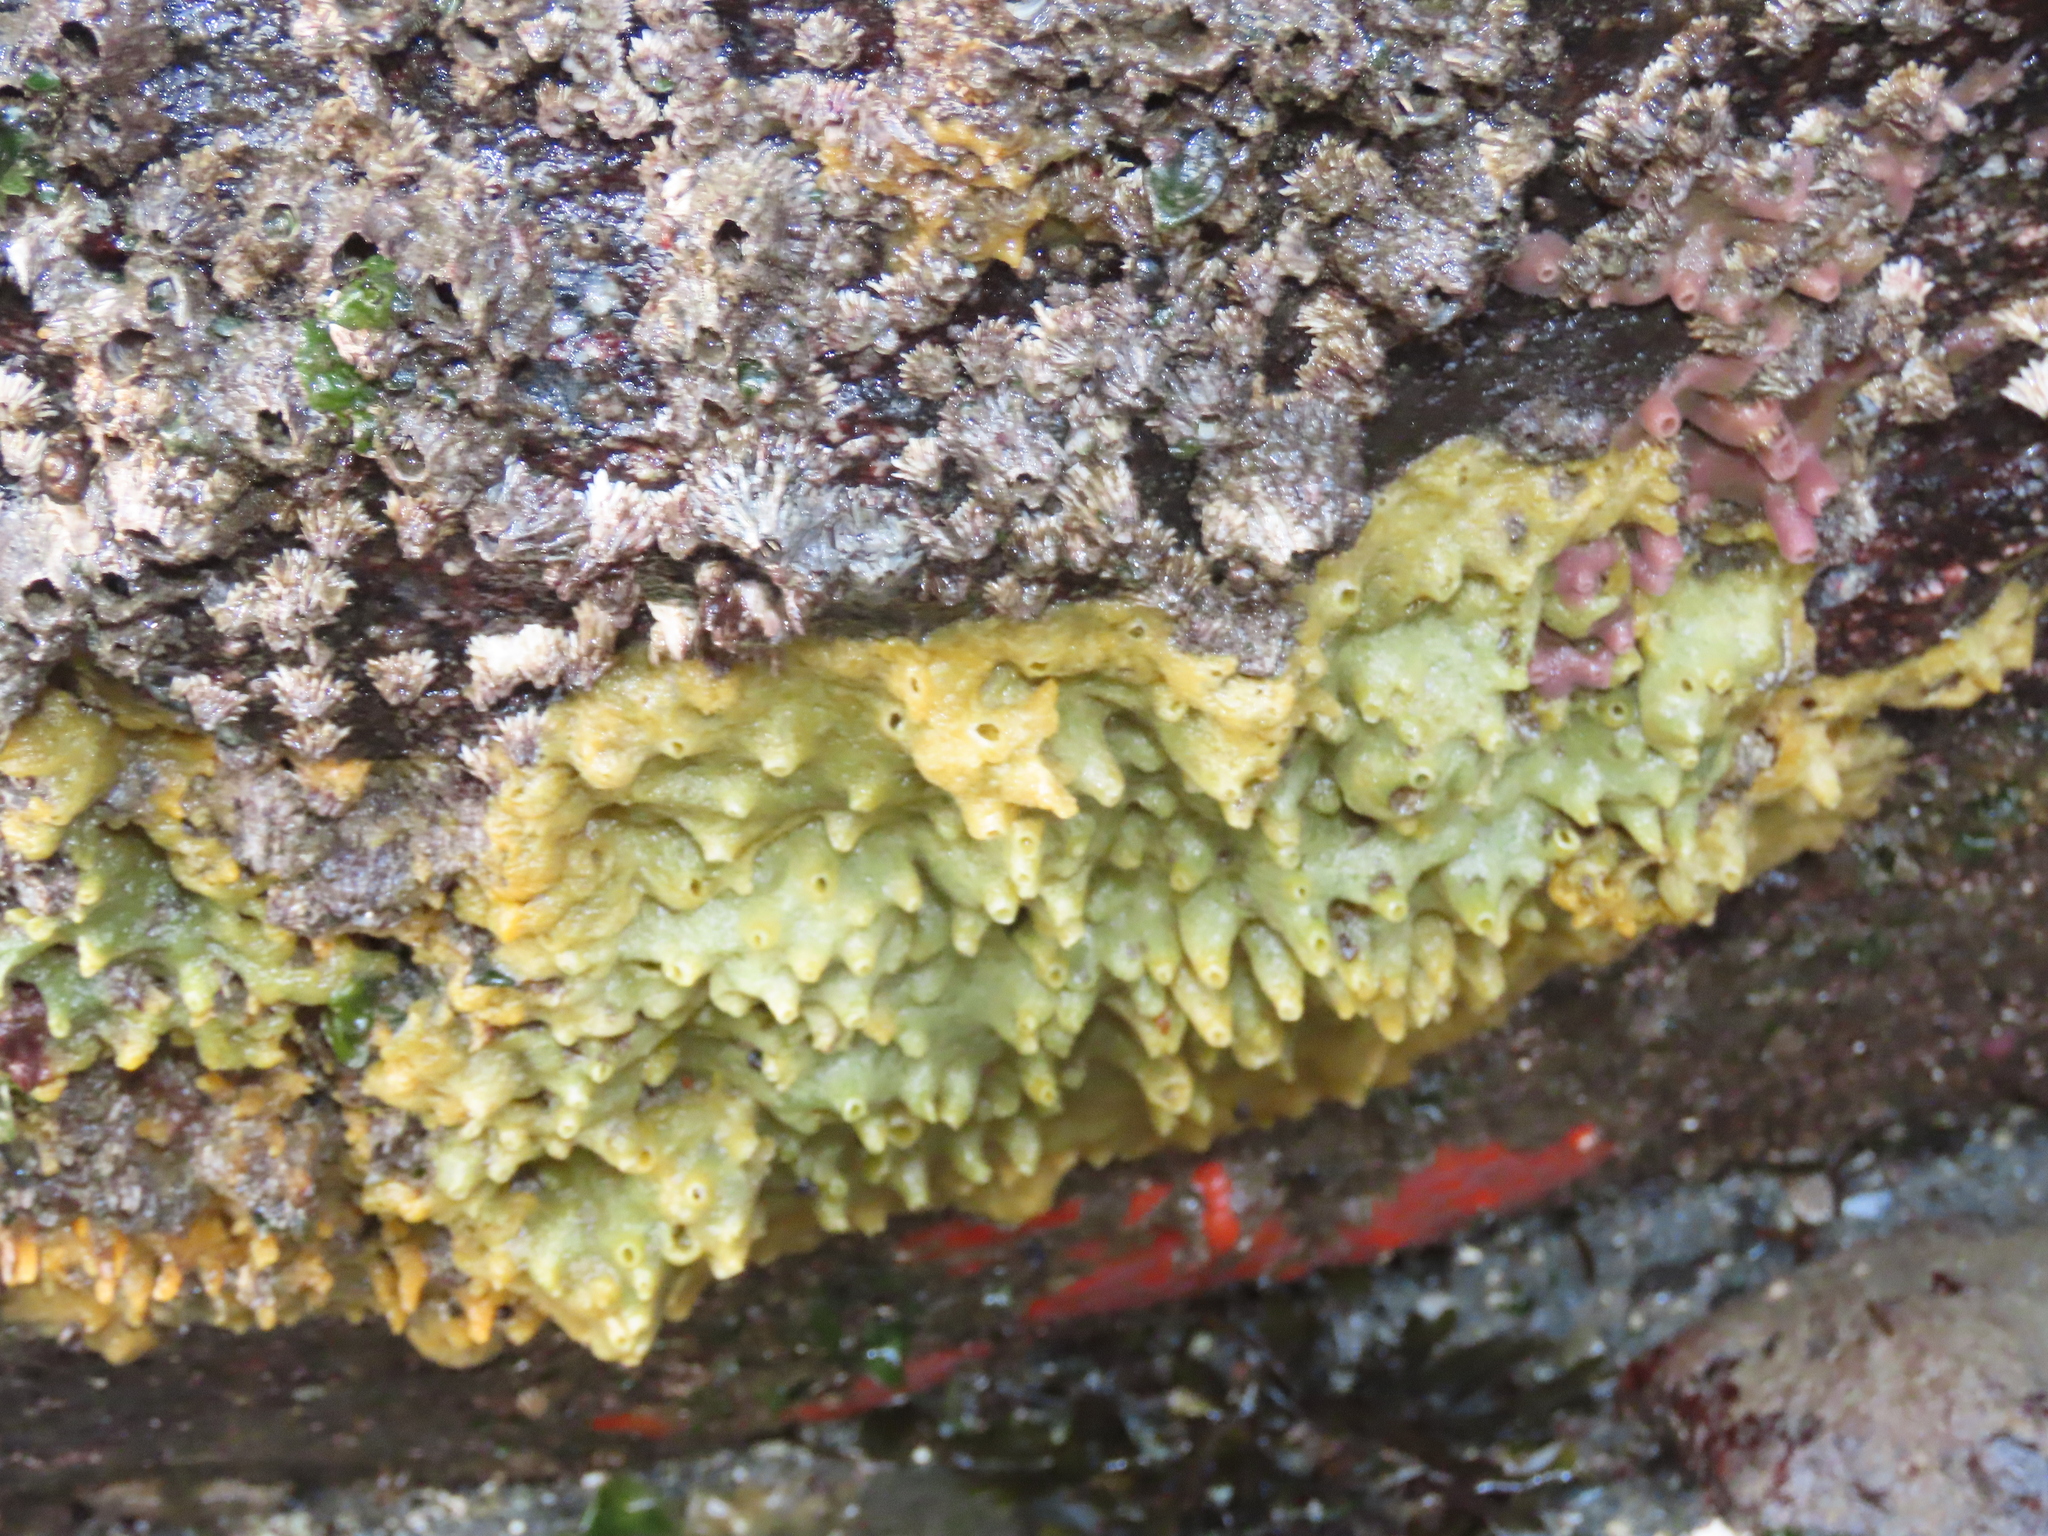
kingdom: Animalia
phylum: Porifera
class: Demospongiae
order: Suberitida
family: Halichondriidae
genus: Halichondria
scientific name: Halichondria panicea
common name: Breadcrumb sponge
